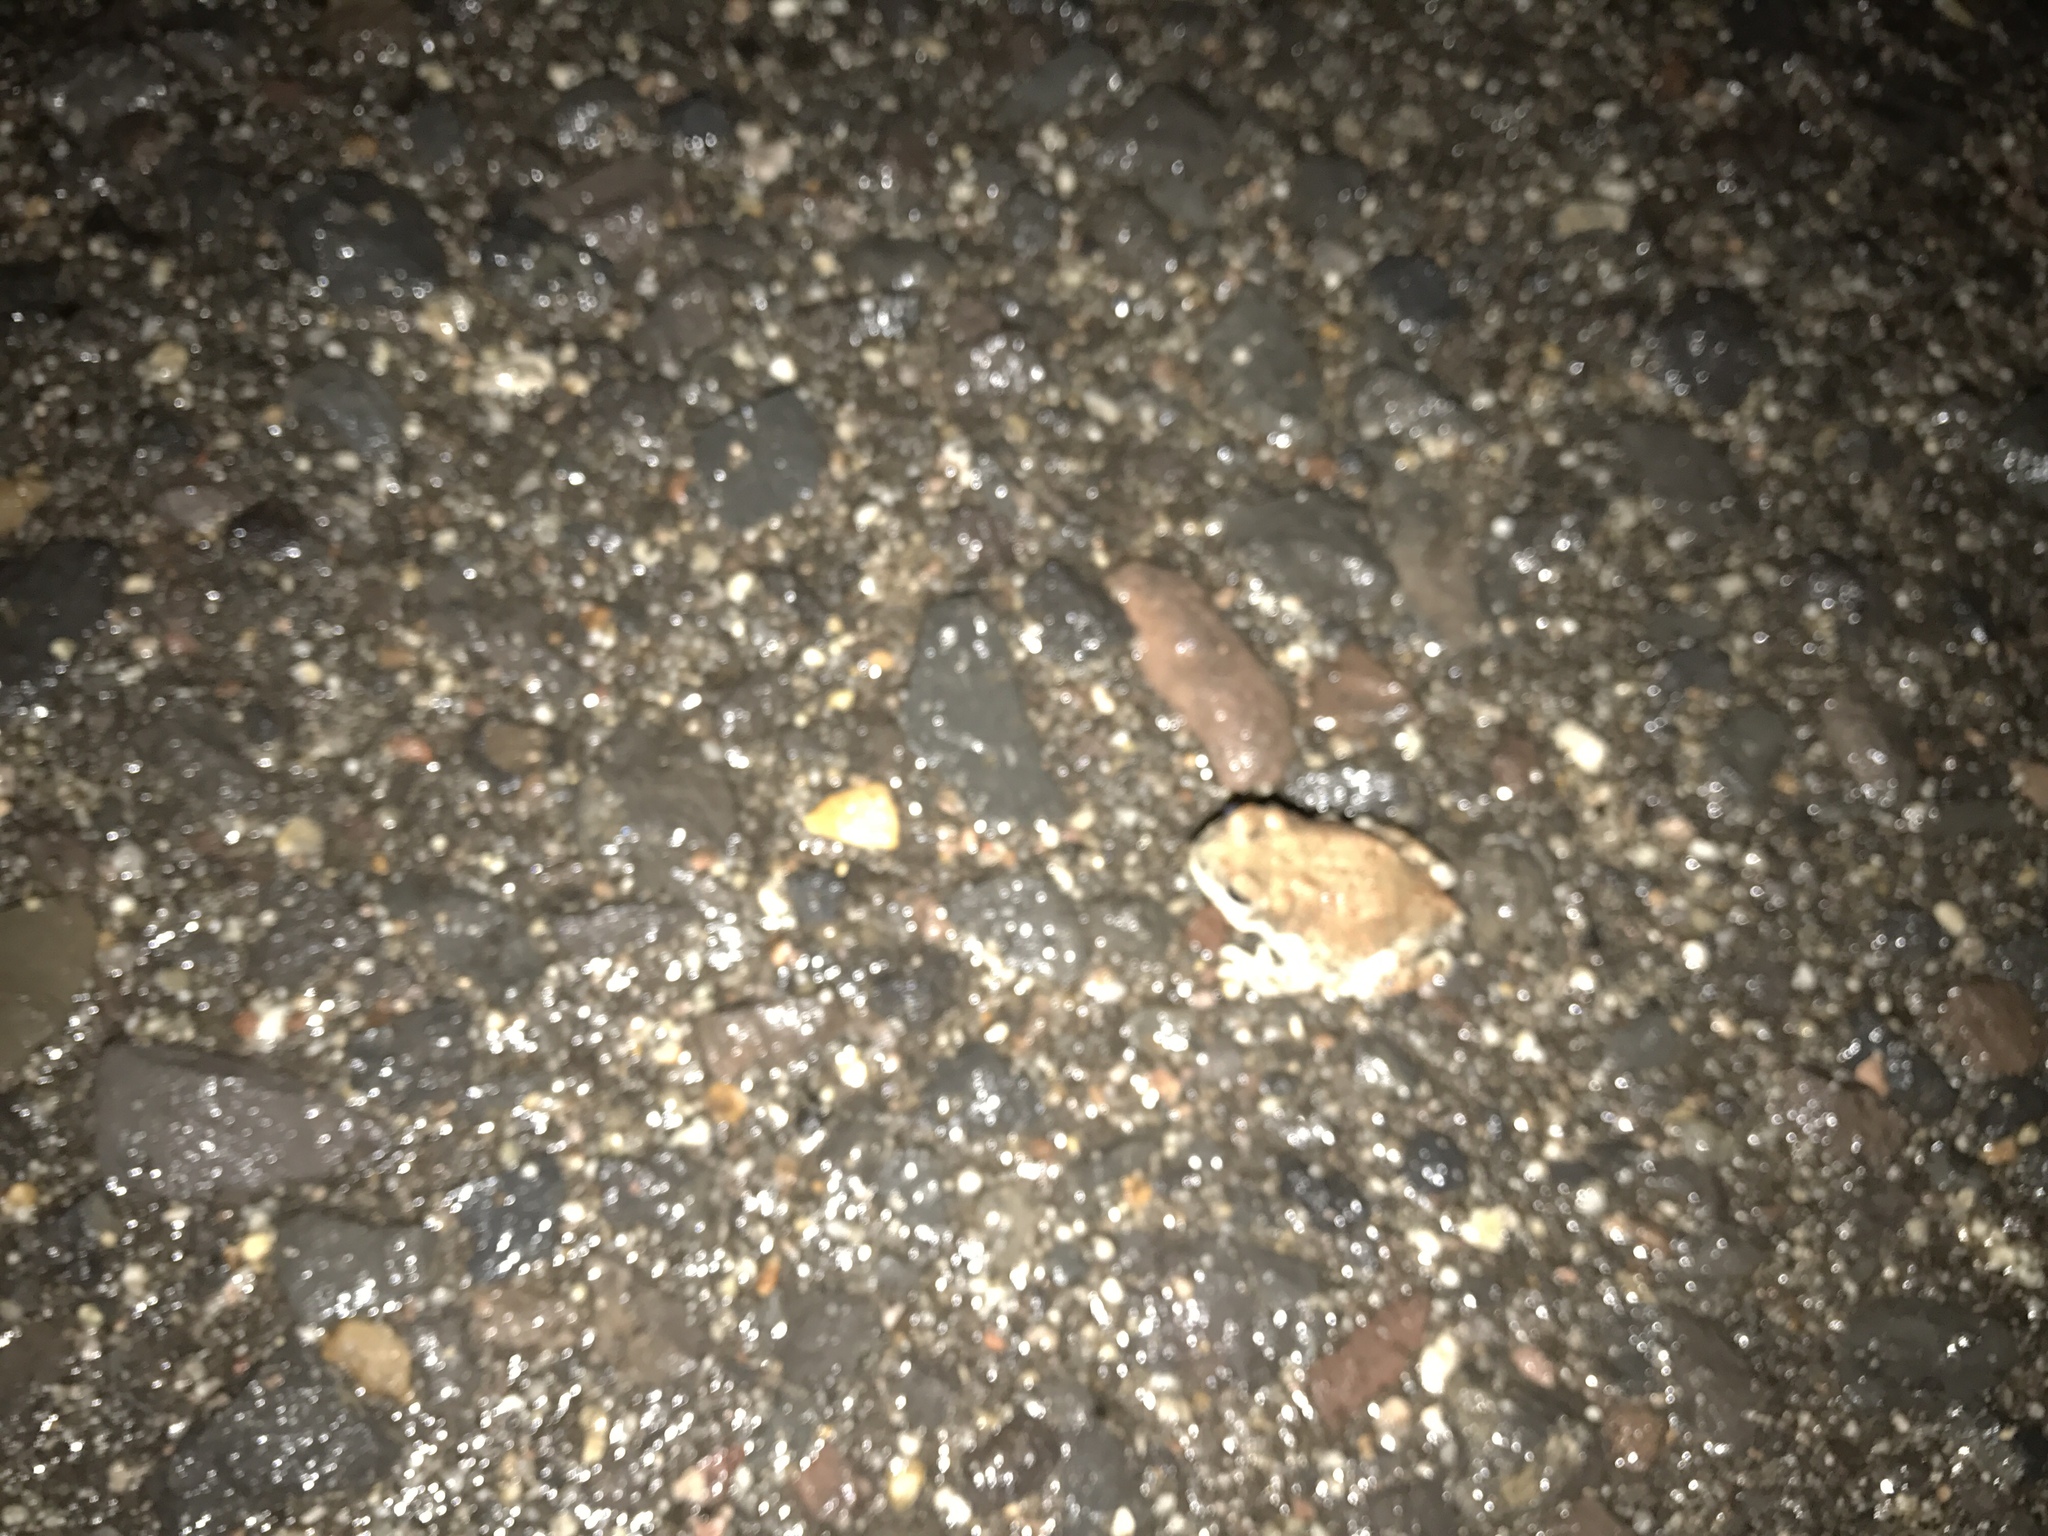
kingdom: Animalia
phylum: Chordata
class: Amphibia
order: Anura
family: Bufonidae
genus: Anaxyrus
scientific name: Anaxyrus punctatus
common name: Red-spotted toad
